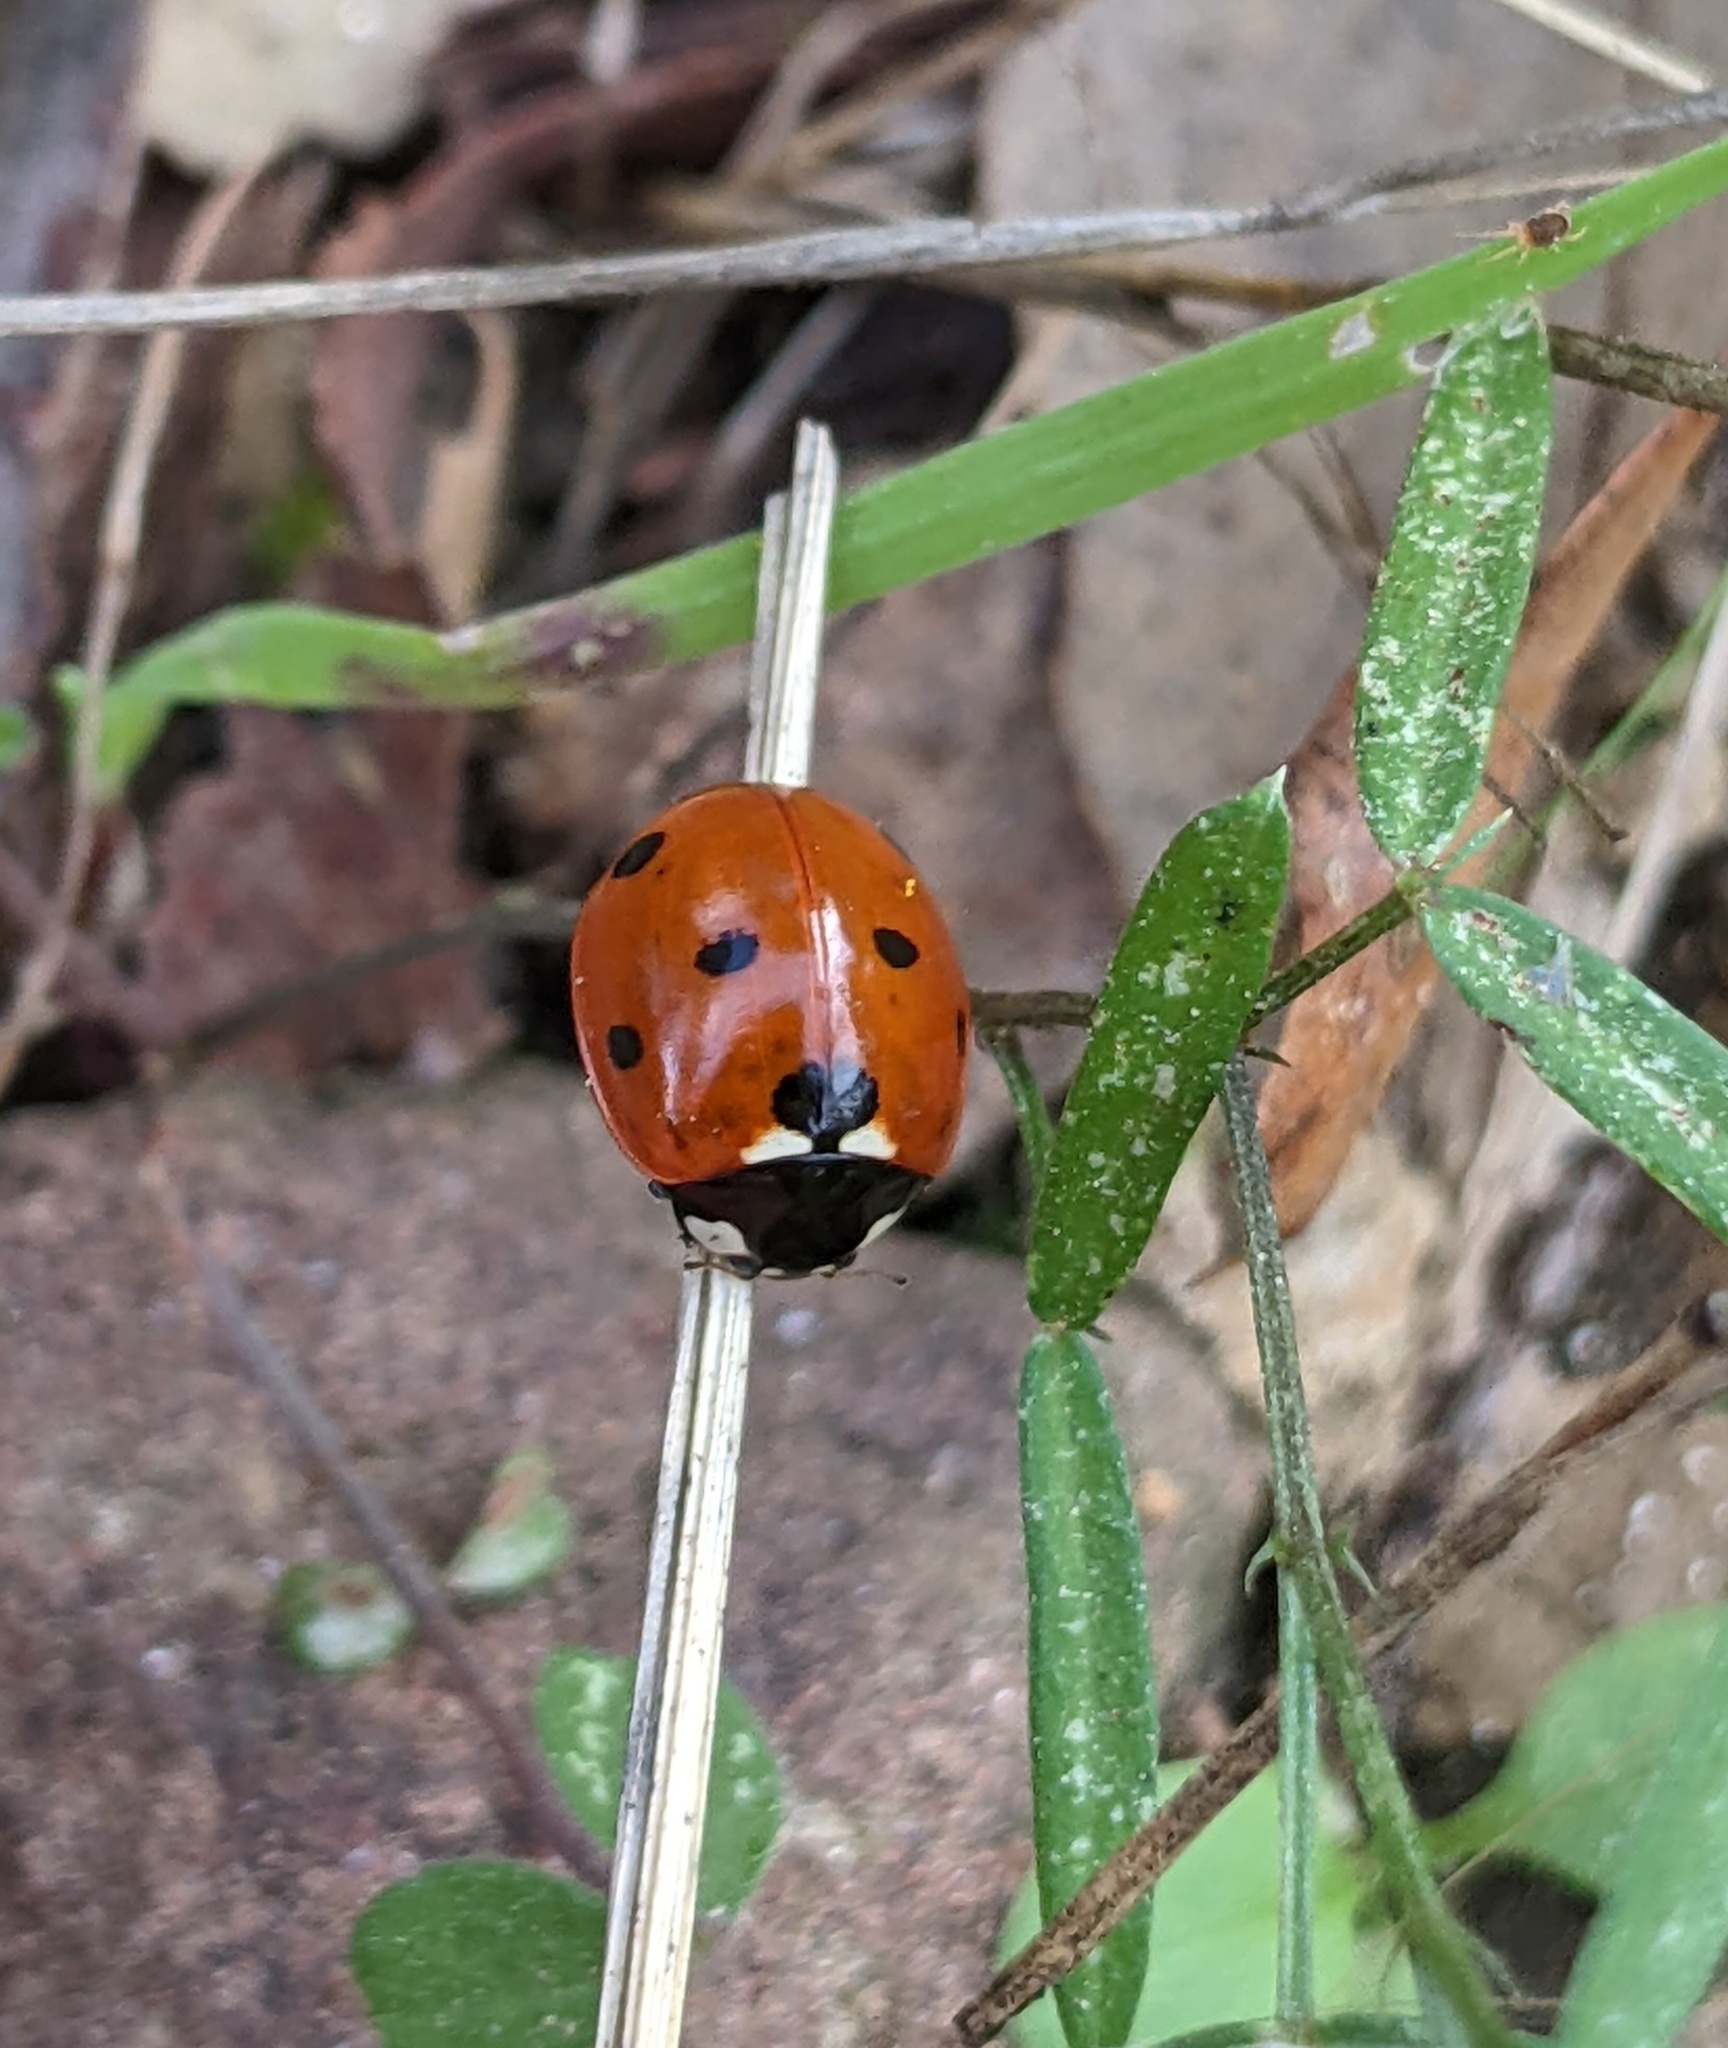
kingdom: Animalia
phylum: Arthropoda
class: Insecta
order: Coleoptera
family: Coccinellidae
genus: Coccinella
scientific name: Coccinella septempunctata
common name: Sevenspotted lady beetle
